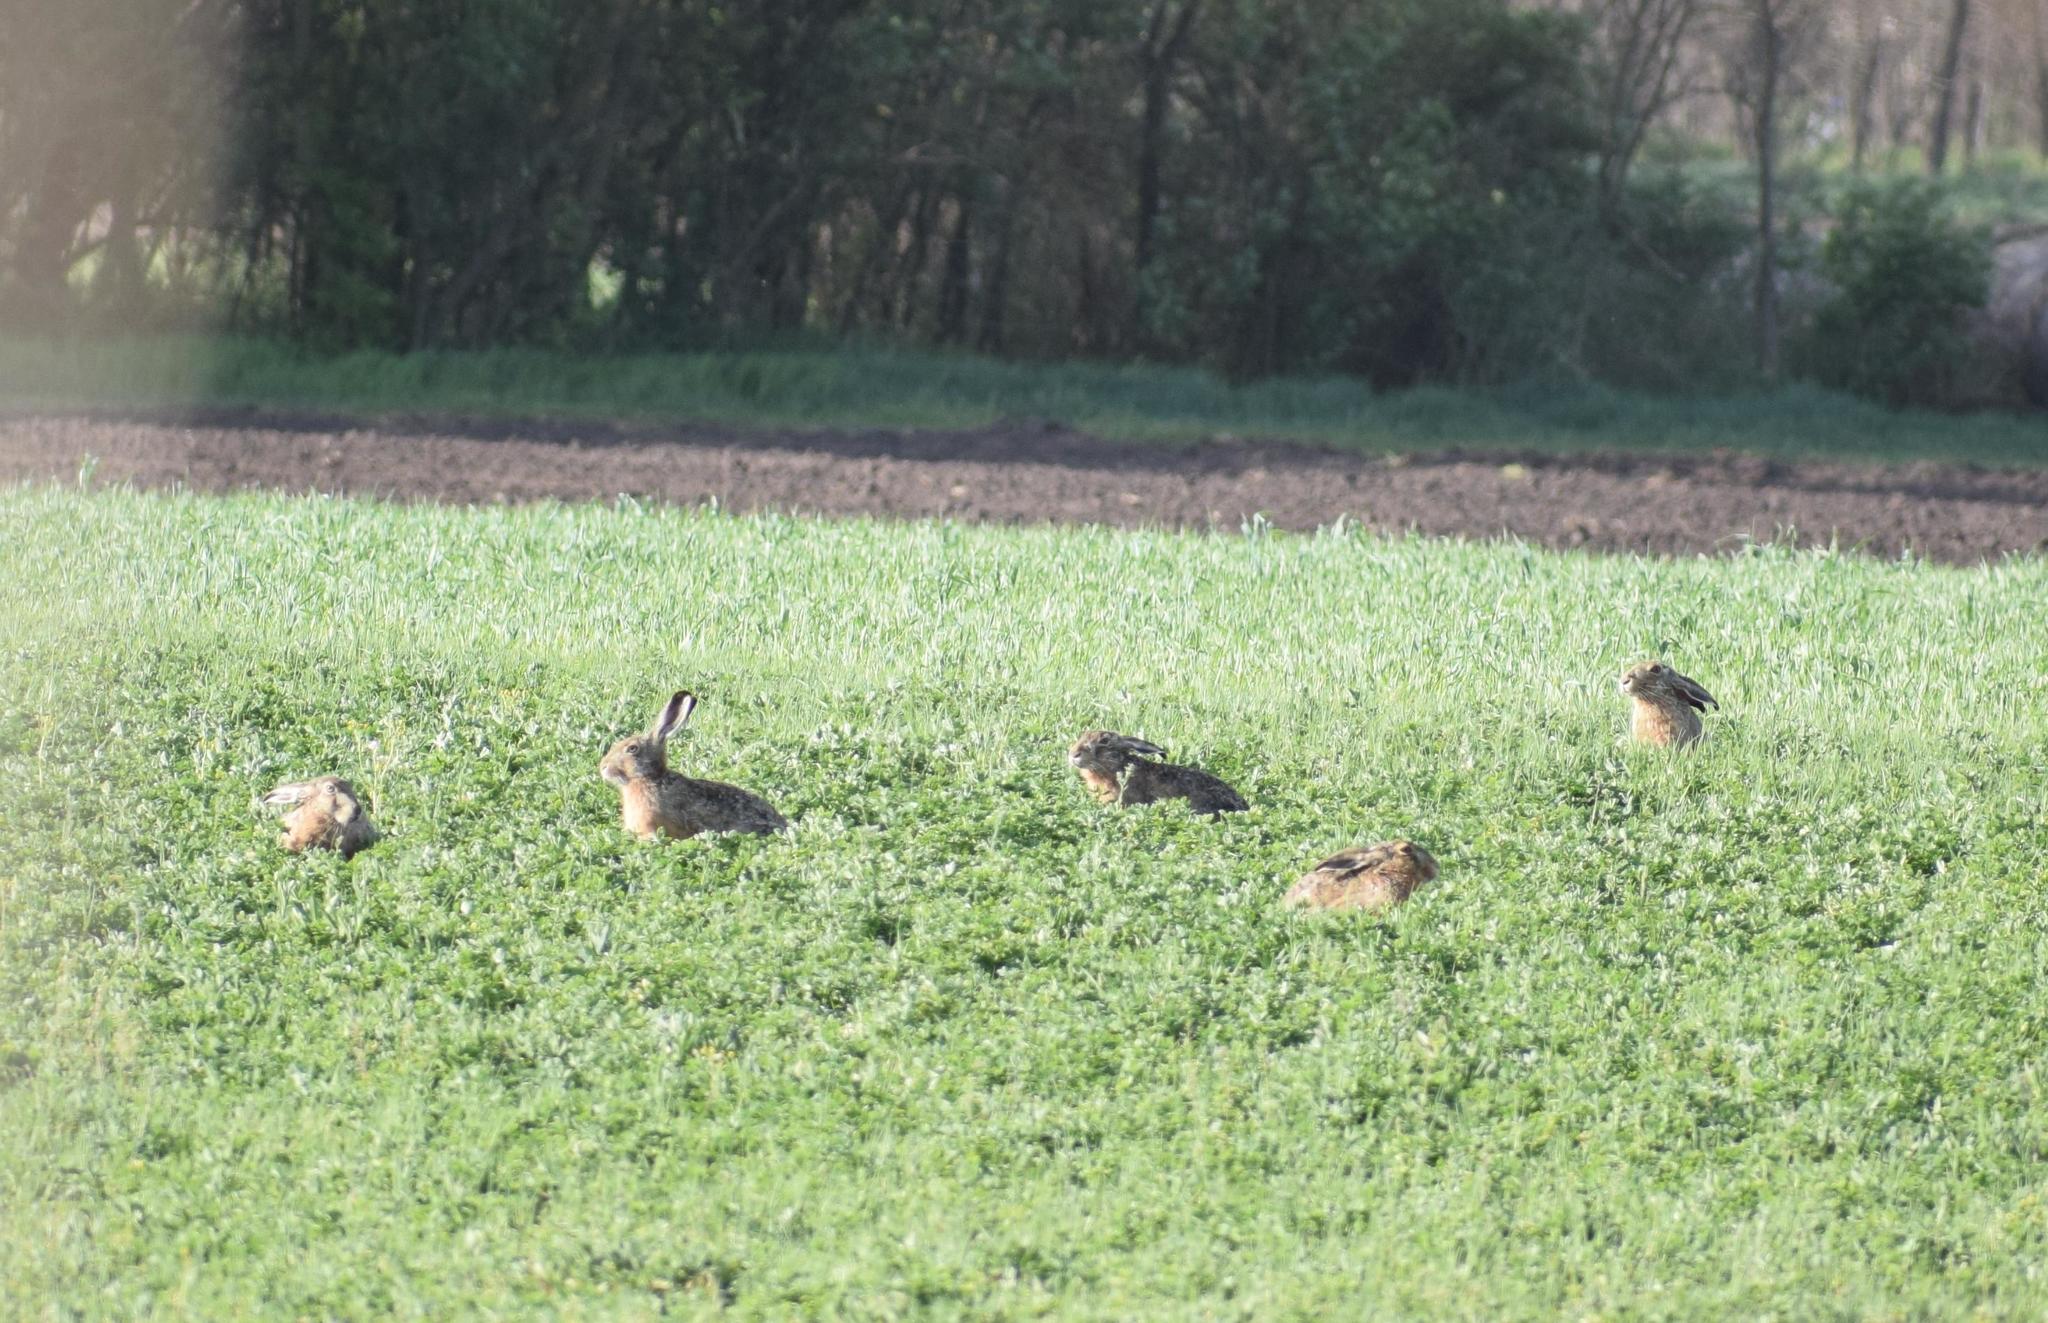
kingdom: Animalia
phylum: Chordata
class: Mammalia
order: Lagomorpha
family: Leporidae
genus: Lepus
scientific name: Lepus europaeus
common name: European hare
